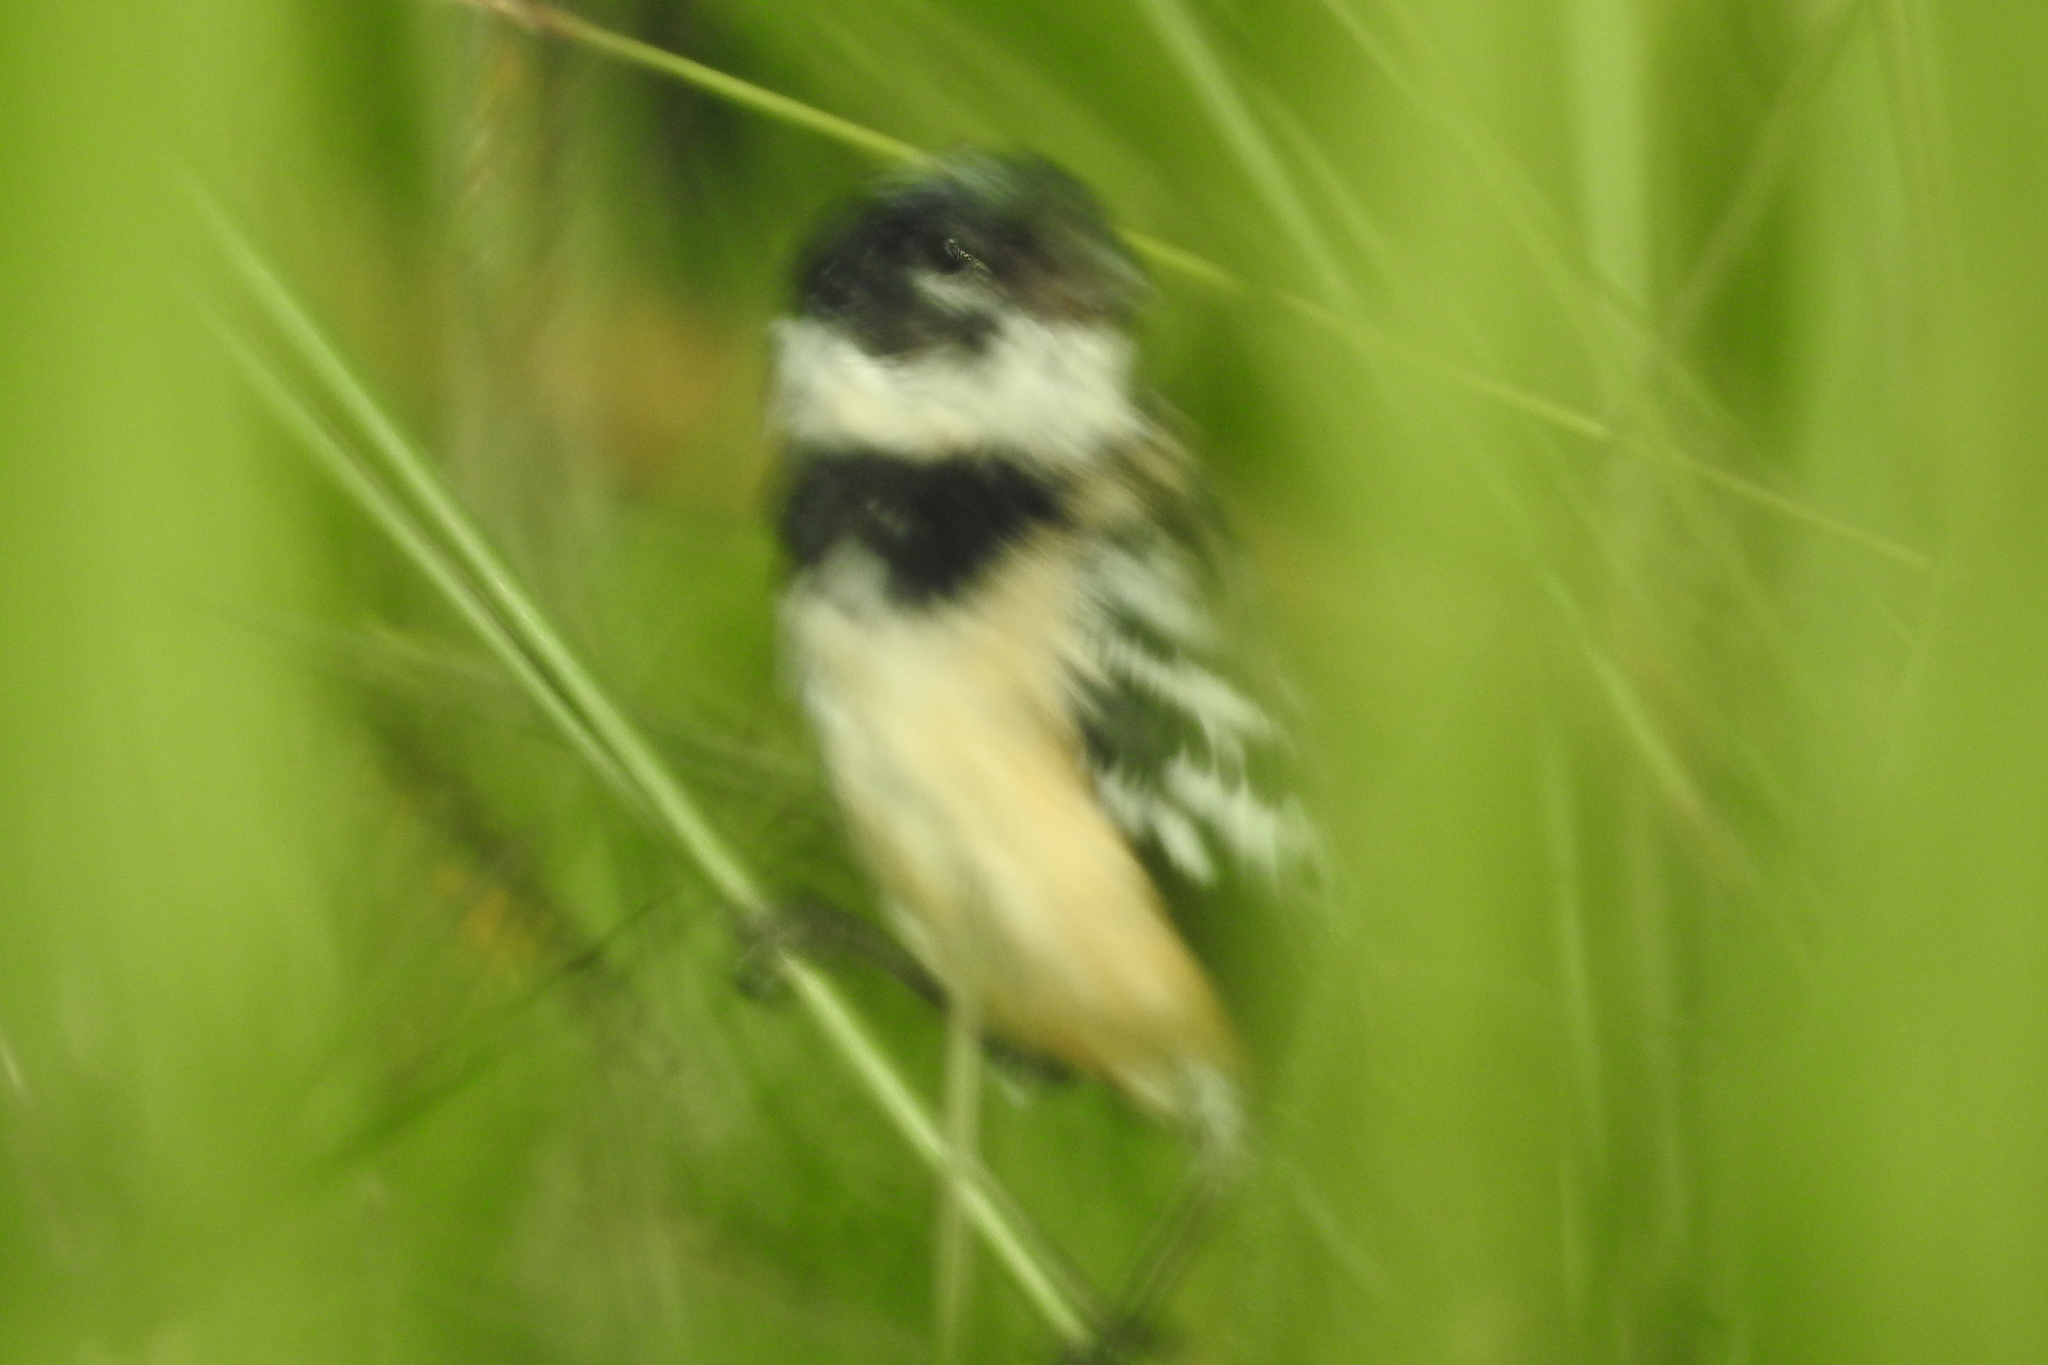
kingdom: Animalia
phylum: Chordata
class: Aves
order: Passeriformes
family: Thraupidae
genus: Sporophila
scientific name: Sporophila morelleti
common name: Morelet's seedeater
